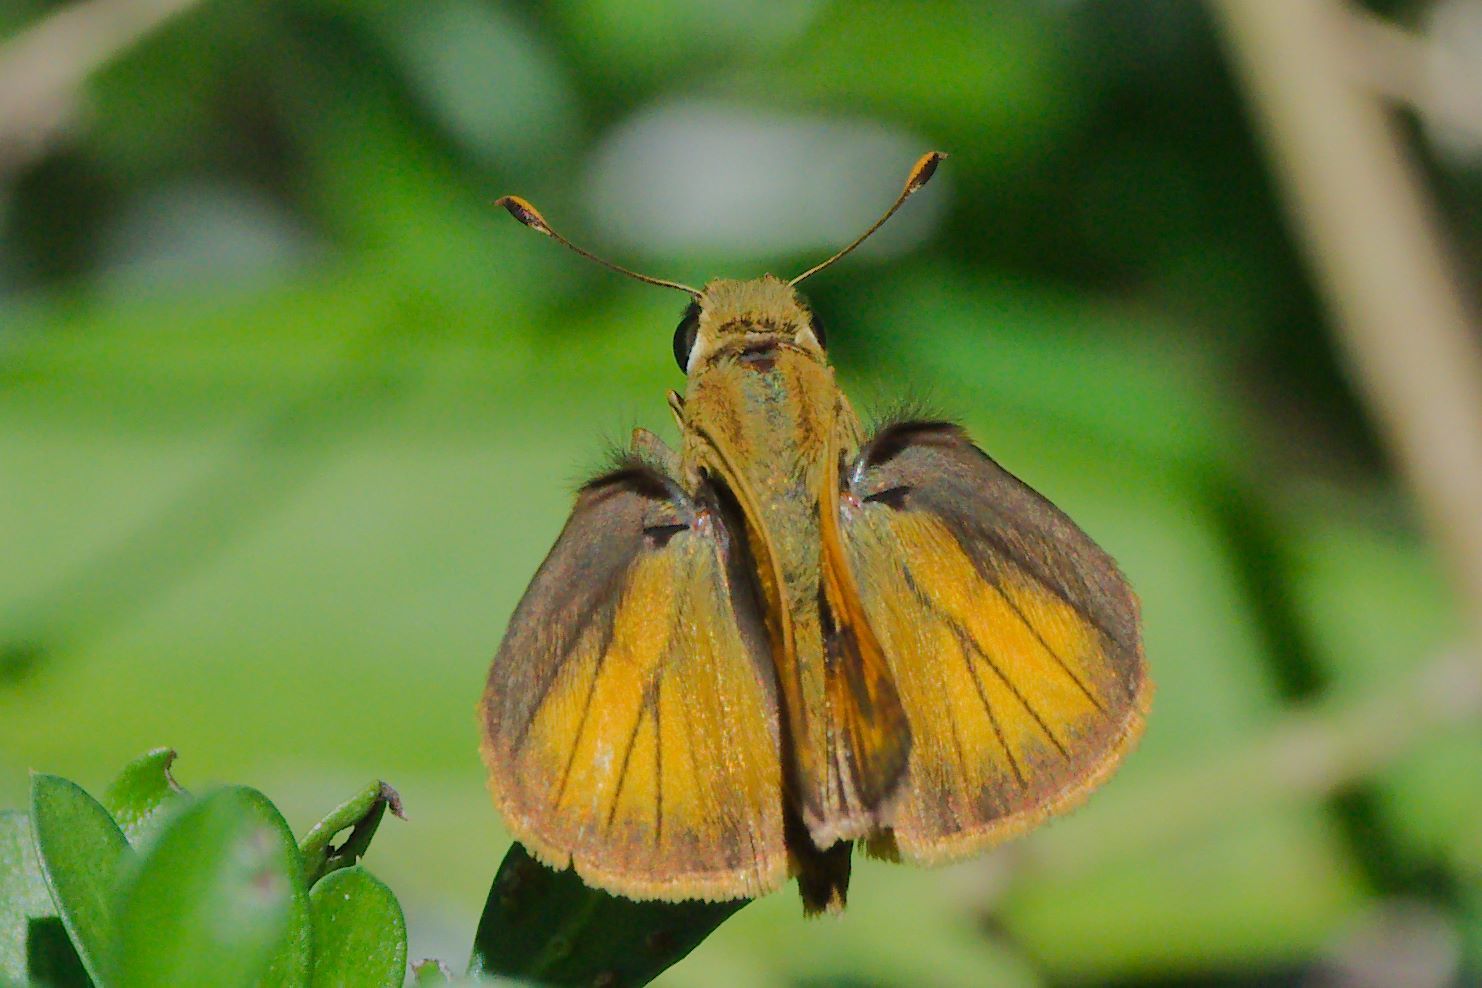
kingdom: Animalia
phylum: Arthropoda
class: Insecta
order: Lepidoptera
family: Hesperiidae
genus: Polites
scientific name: Polites vibex
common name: Whirlabout
